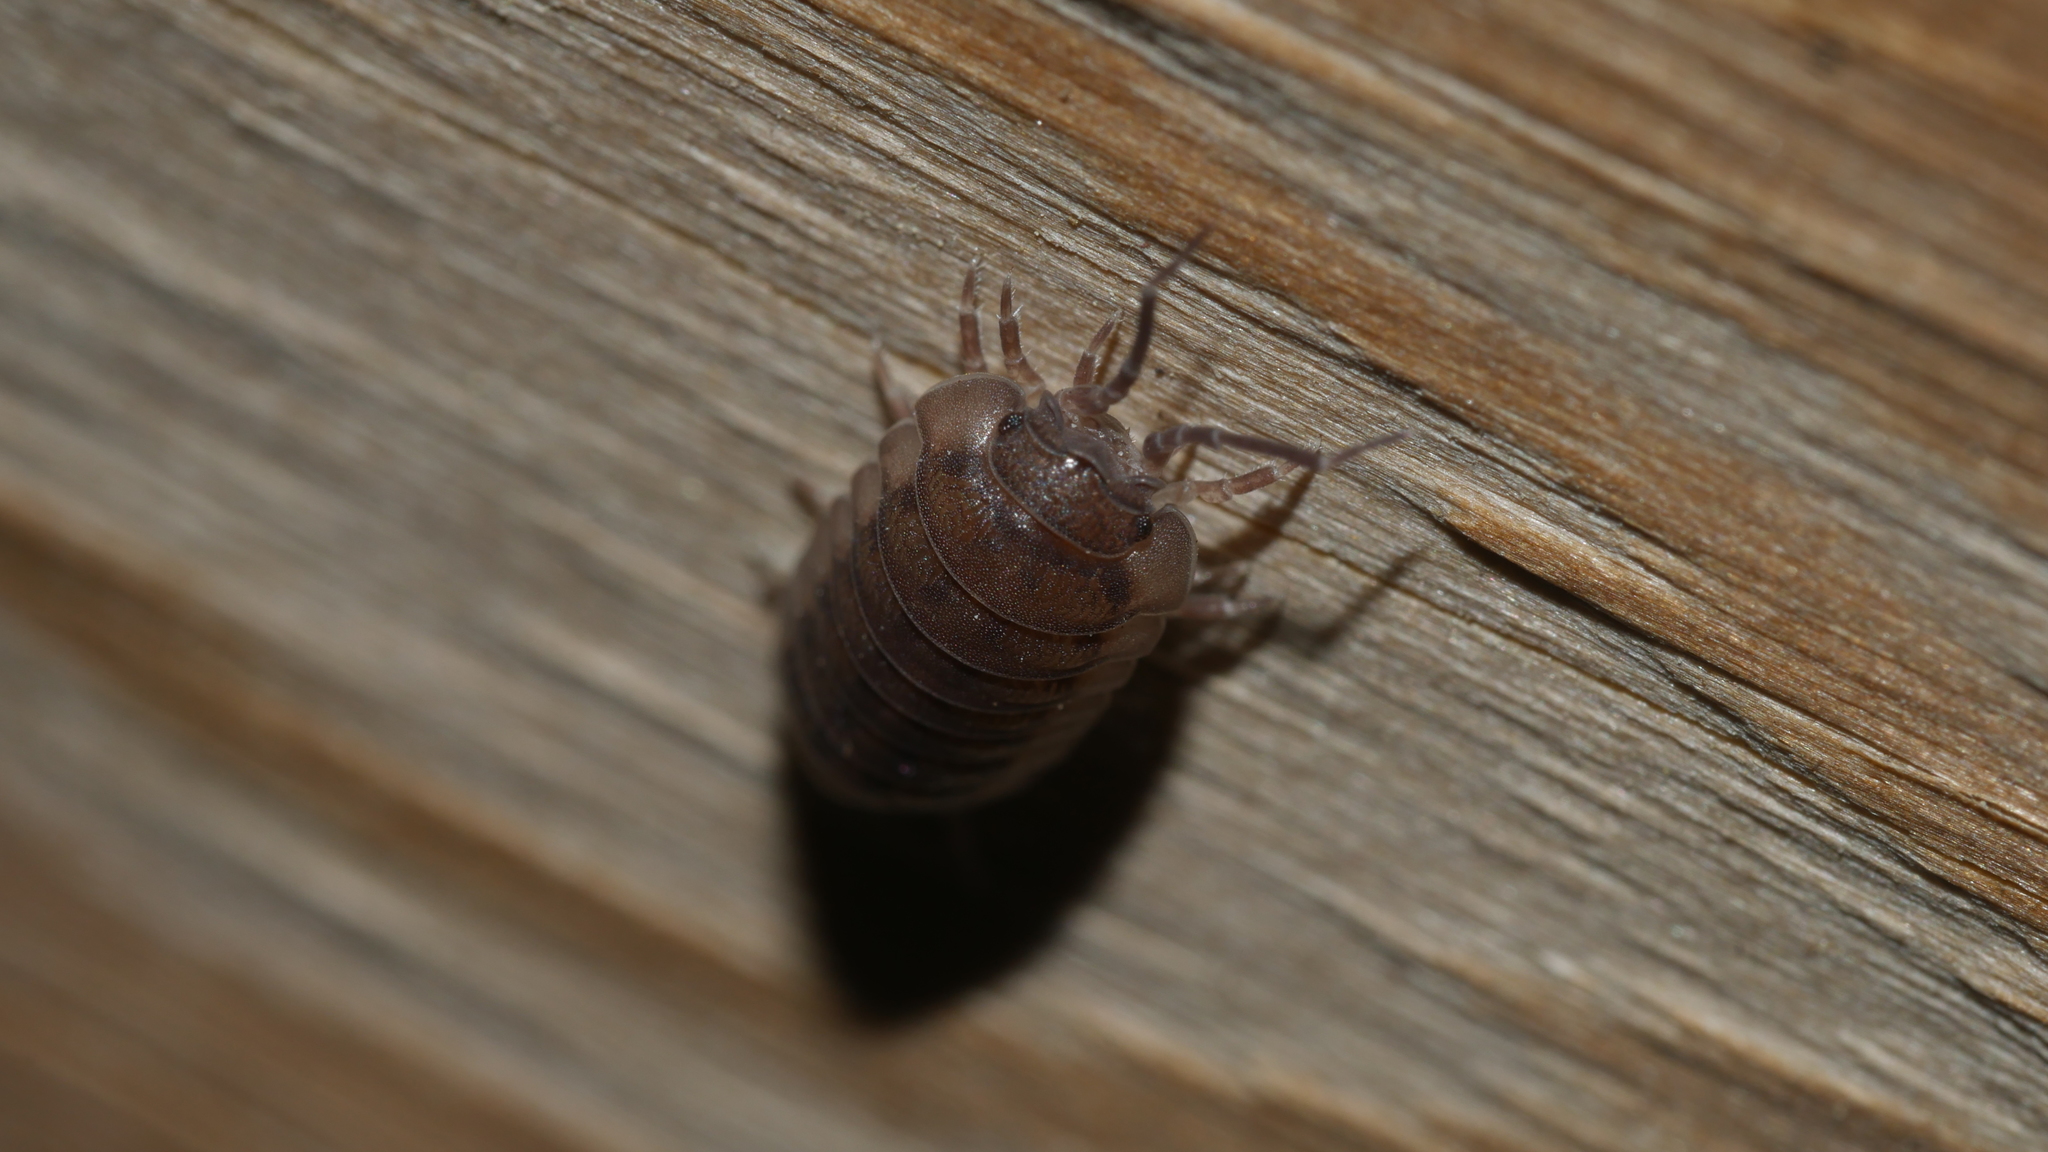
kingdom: Animalia
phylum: Arthropoda
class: Malacostraca
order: Isopoda
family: Armadillidiidae
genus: Armadillidium
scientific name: Armadillidium nasatum
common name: Isopod
